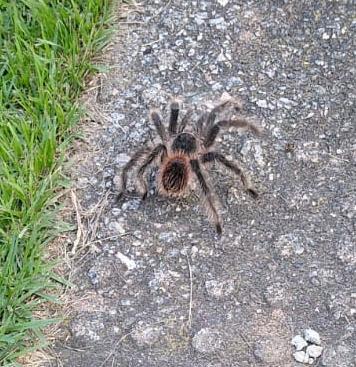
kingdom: Animalia
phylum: Arthropoda
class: Arachnida
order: Araneae
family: Theraphosidae
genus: Lasiodora
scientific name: Lasiodora parahybana
